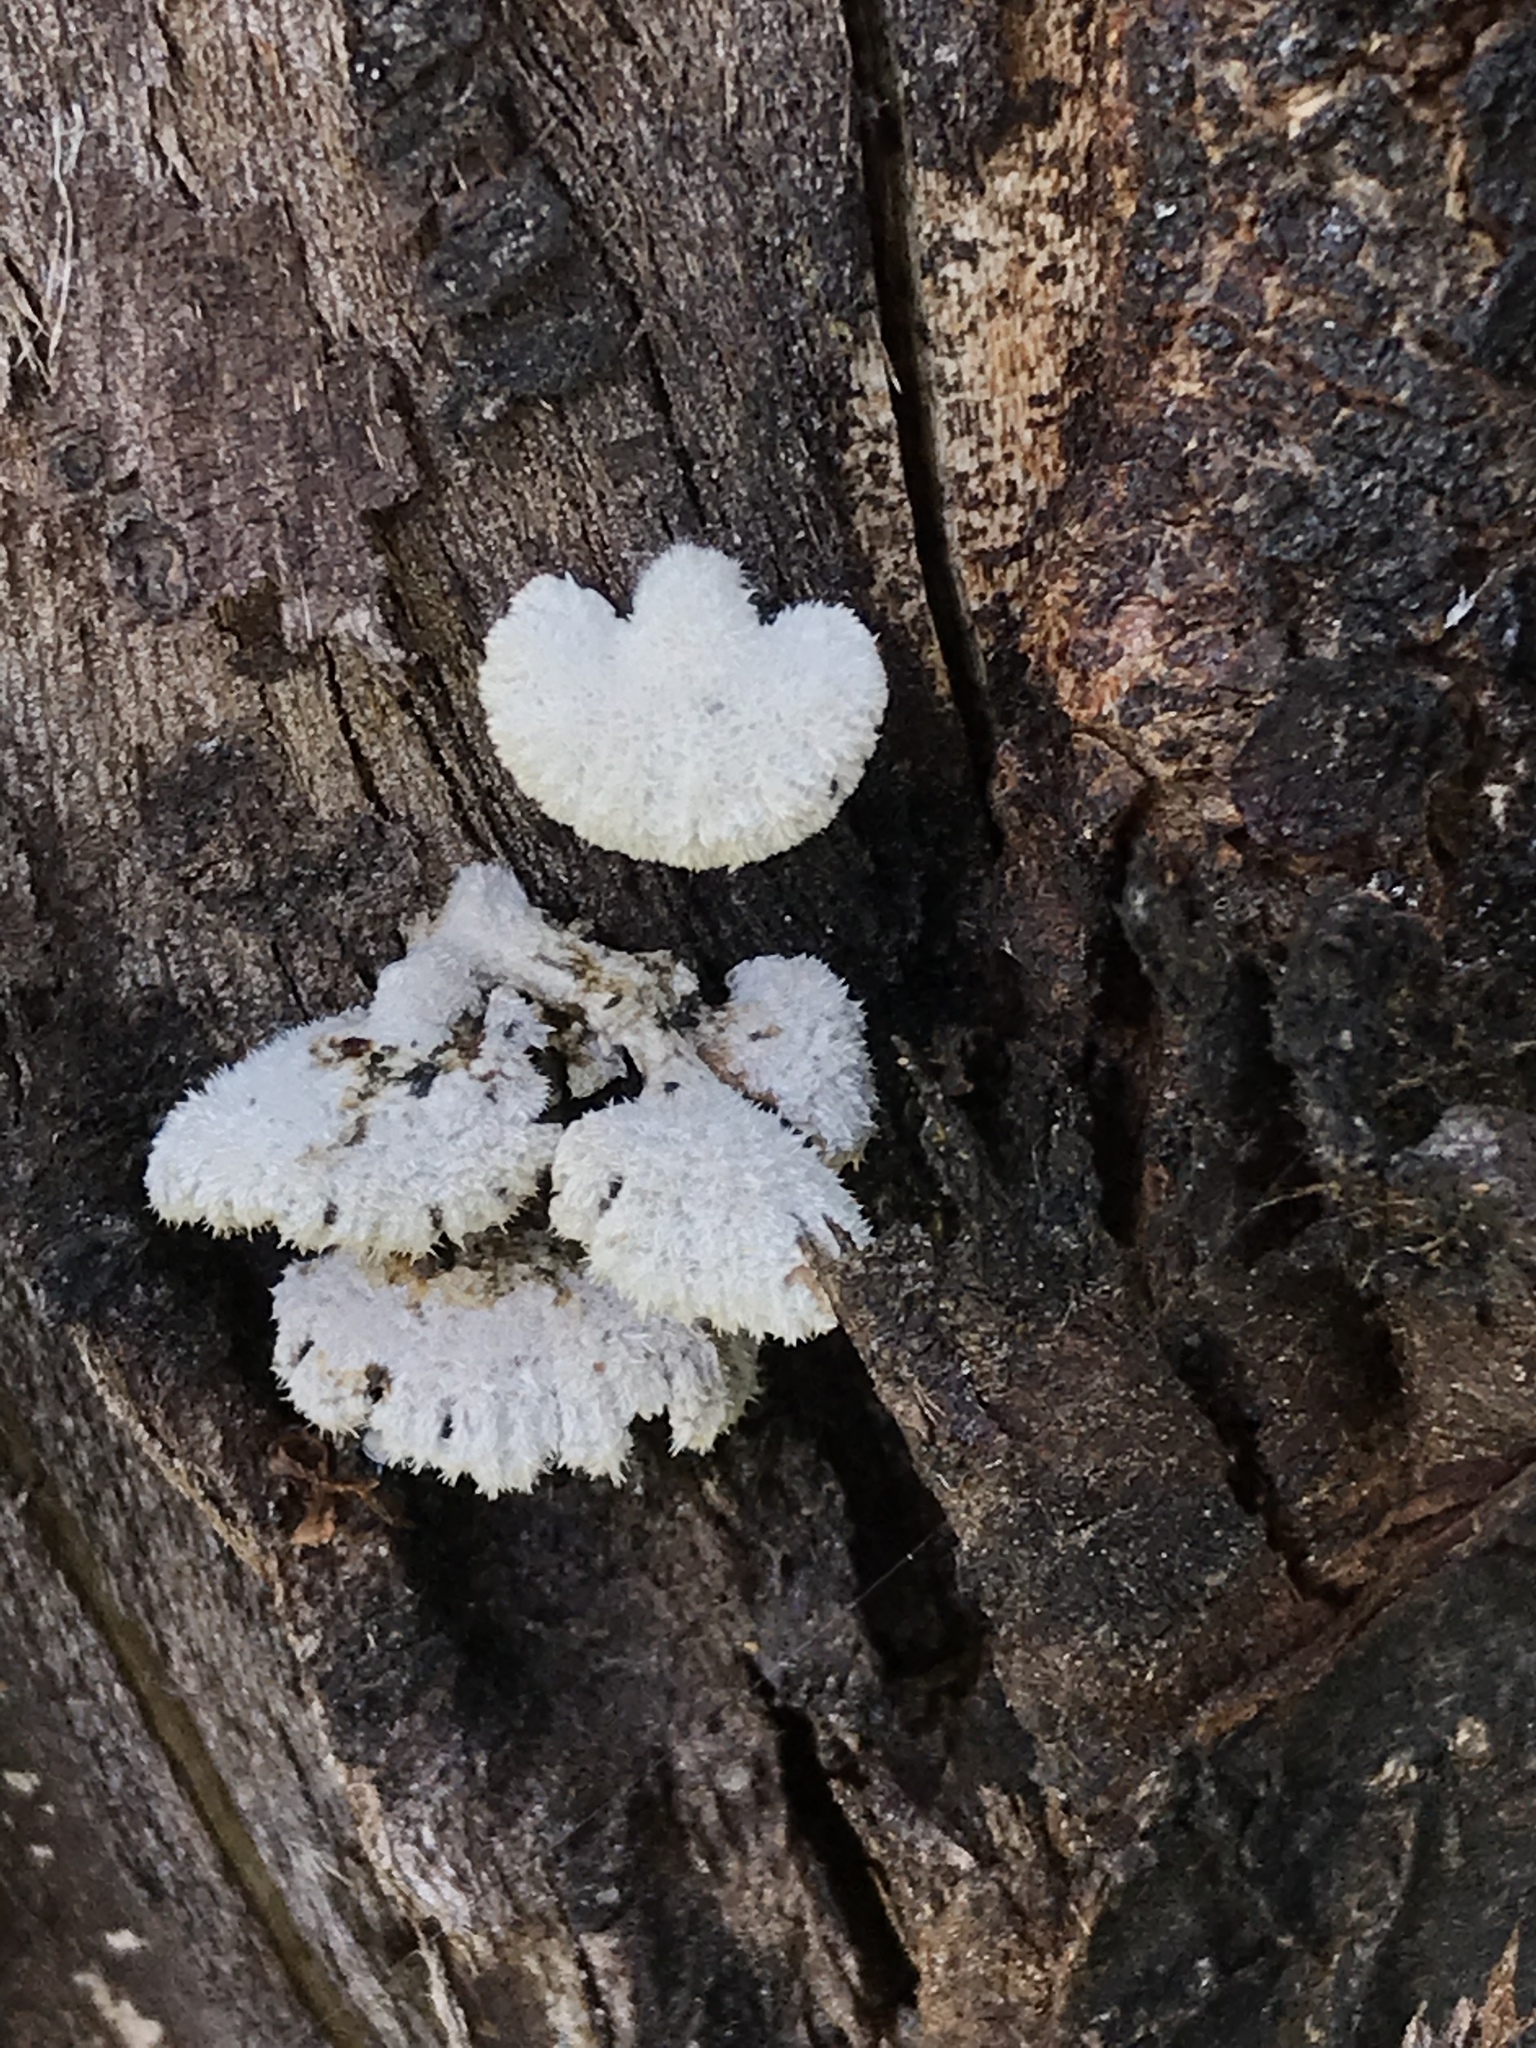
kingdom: Fungi
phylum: Basidiomycota
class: Agaricomycetes
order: Agaricales
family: Schizophyllaceae
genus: Schizophyllum
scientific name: Schizophyllum commune
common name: Common porecrust
